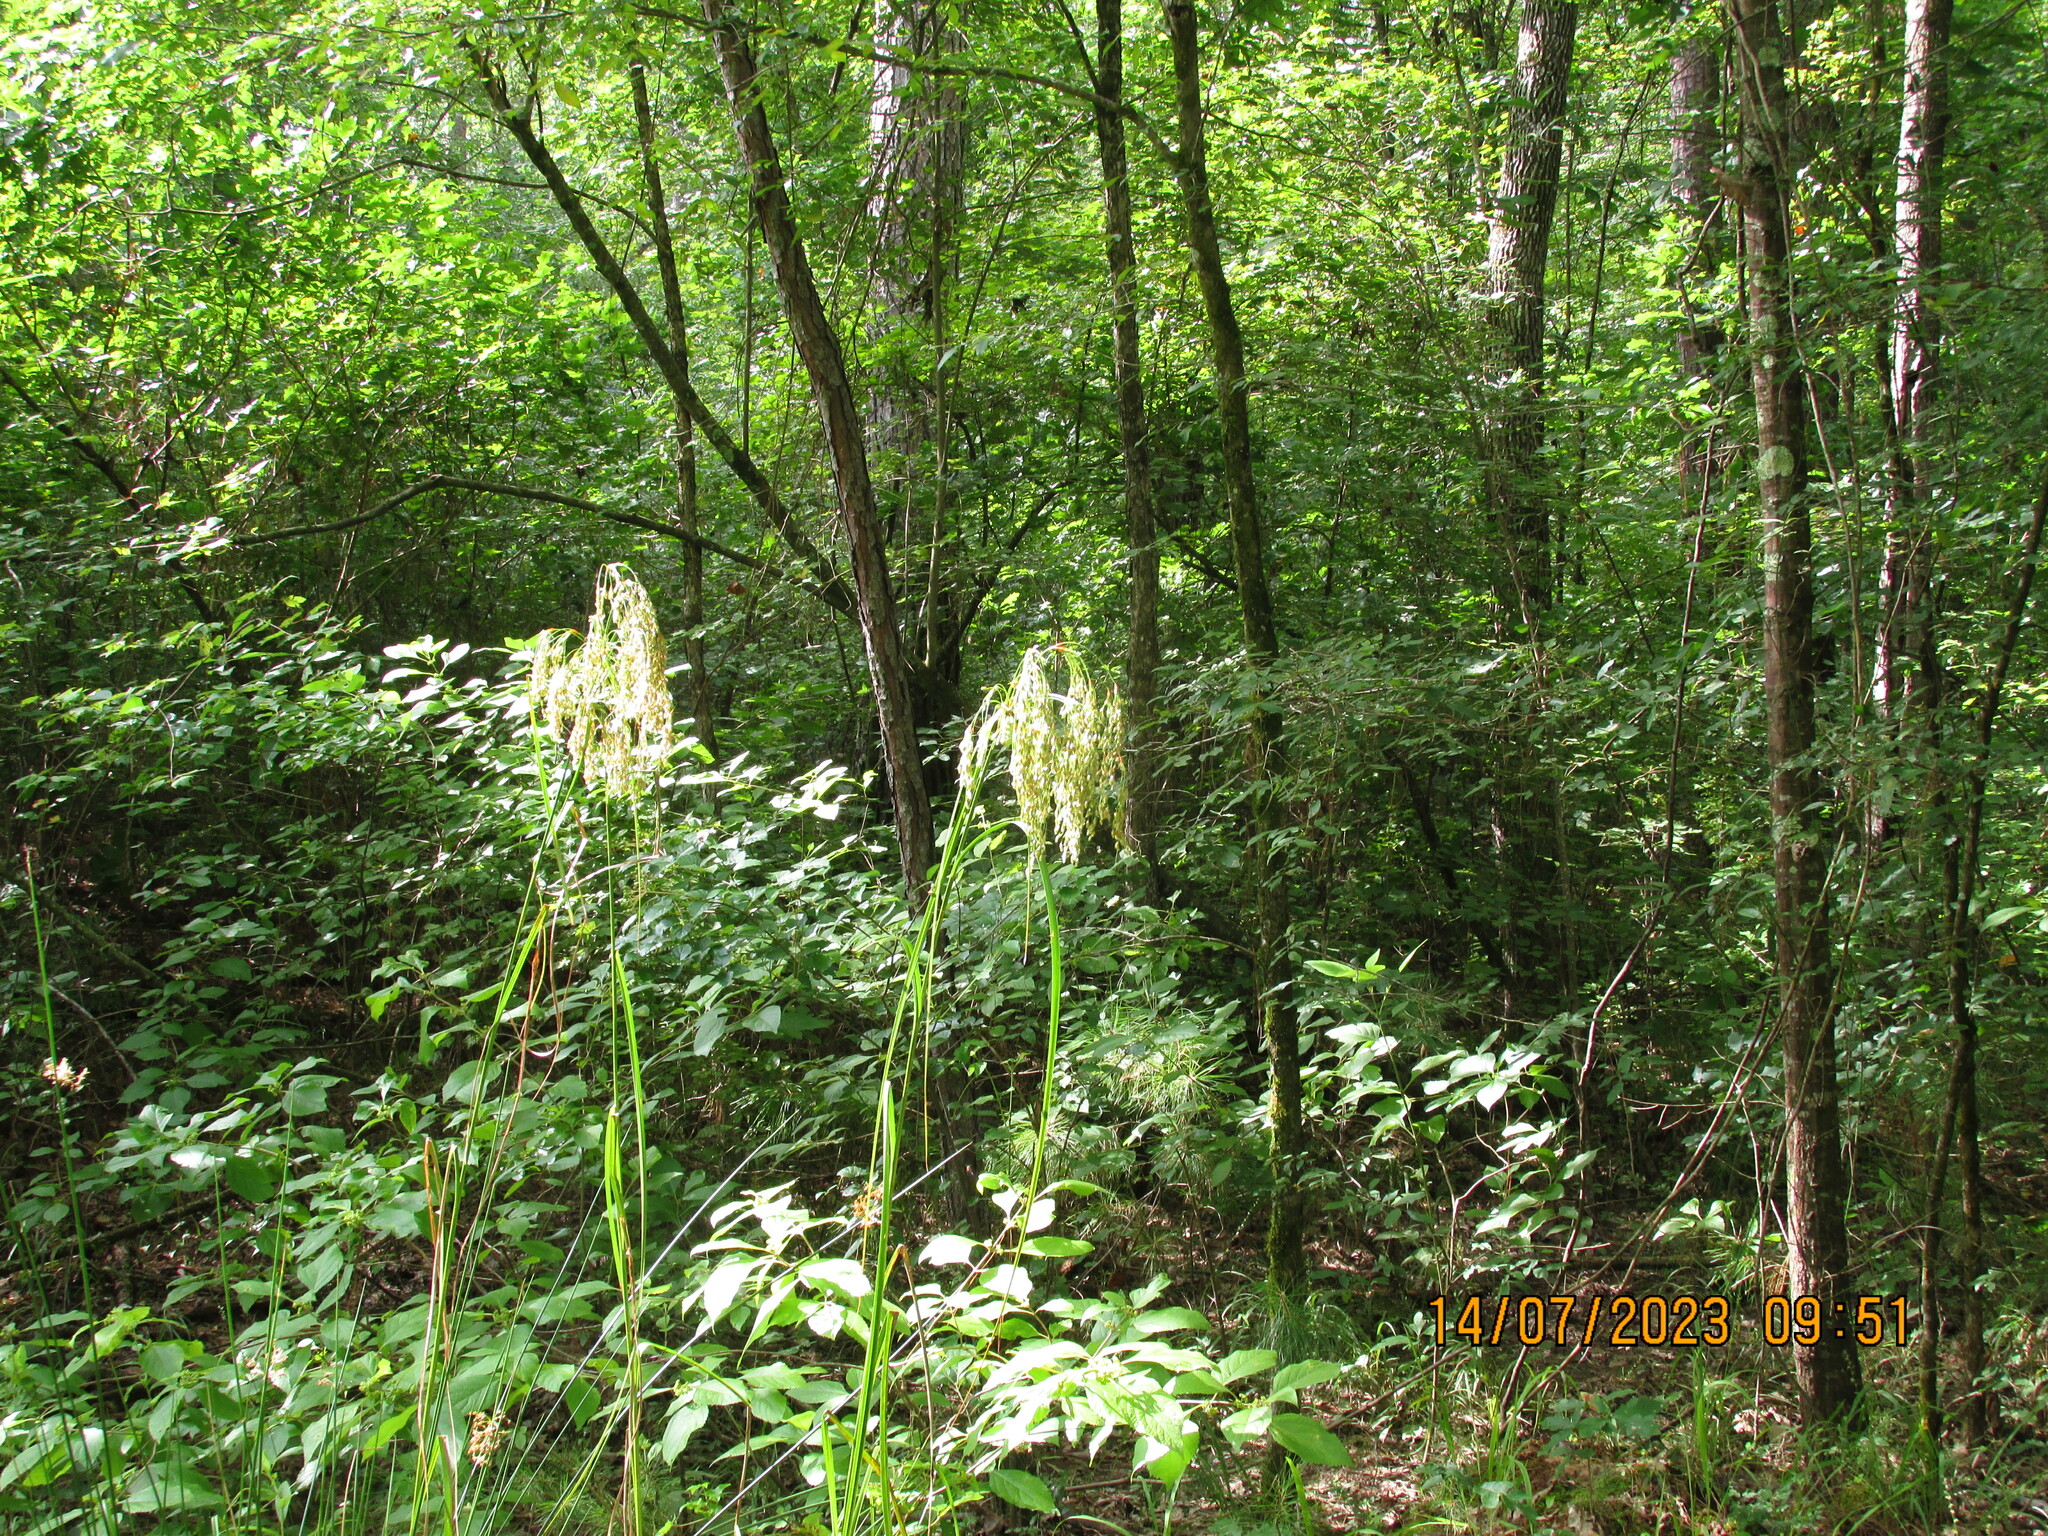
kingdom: Plantae
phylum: Tracheophyta
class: Liliopsida
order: Poales
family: Cyperaceae
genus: Scirpus
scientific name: Scirpus cyperinus
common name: Black-sheathed bulrush
